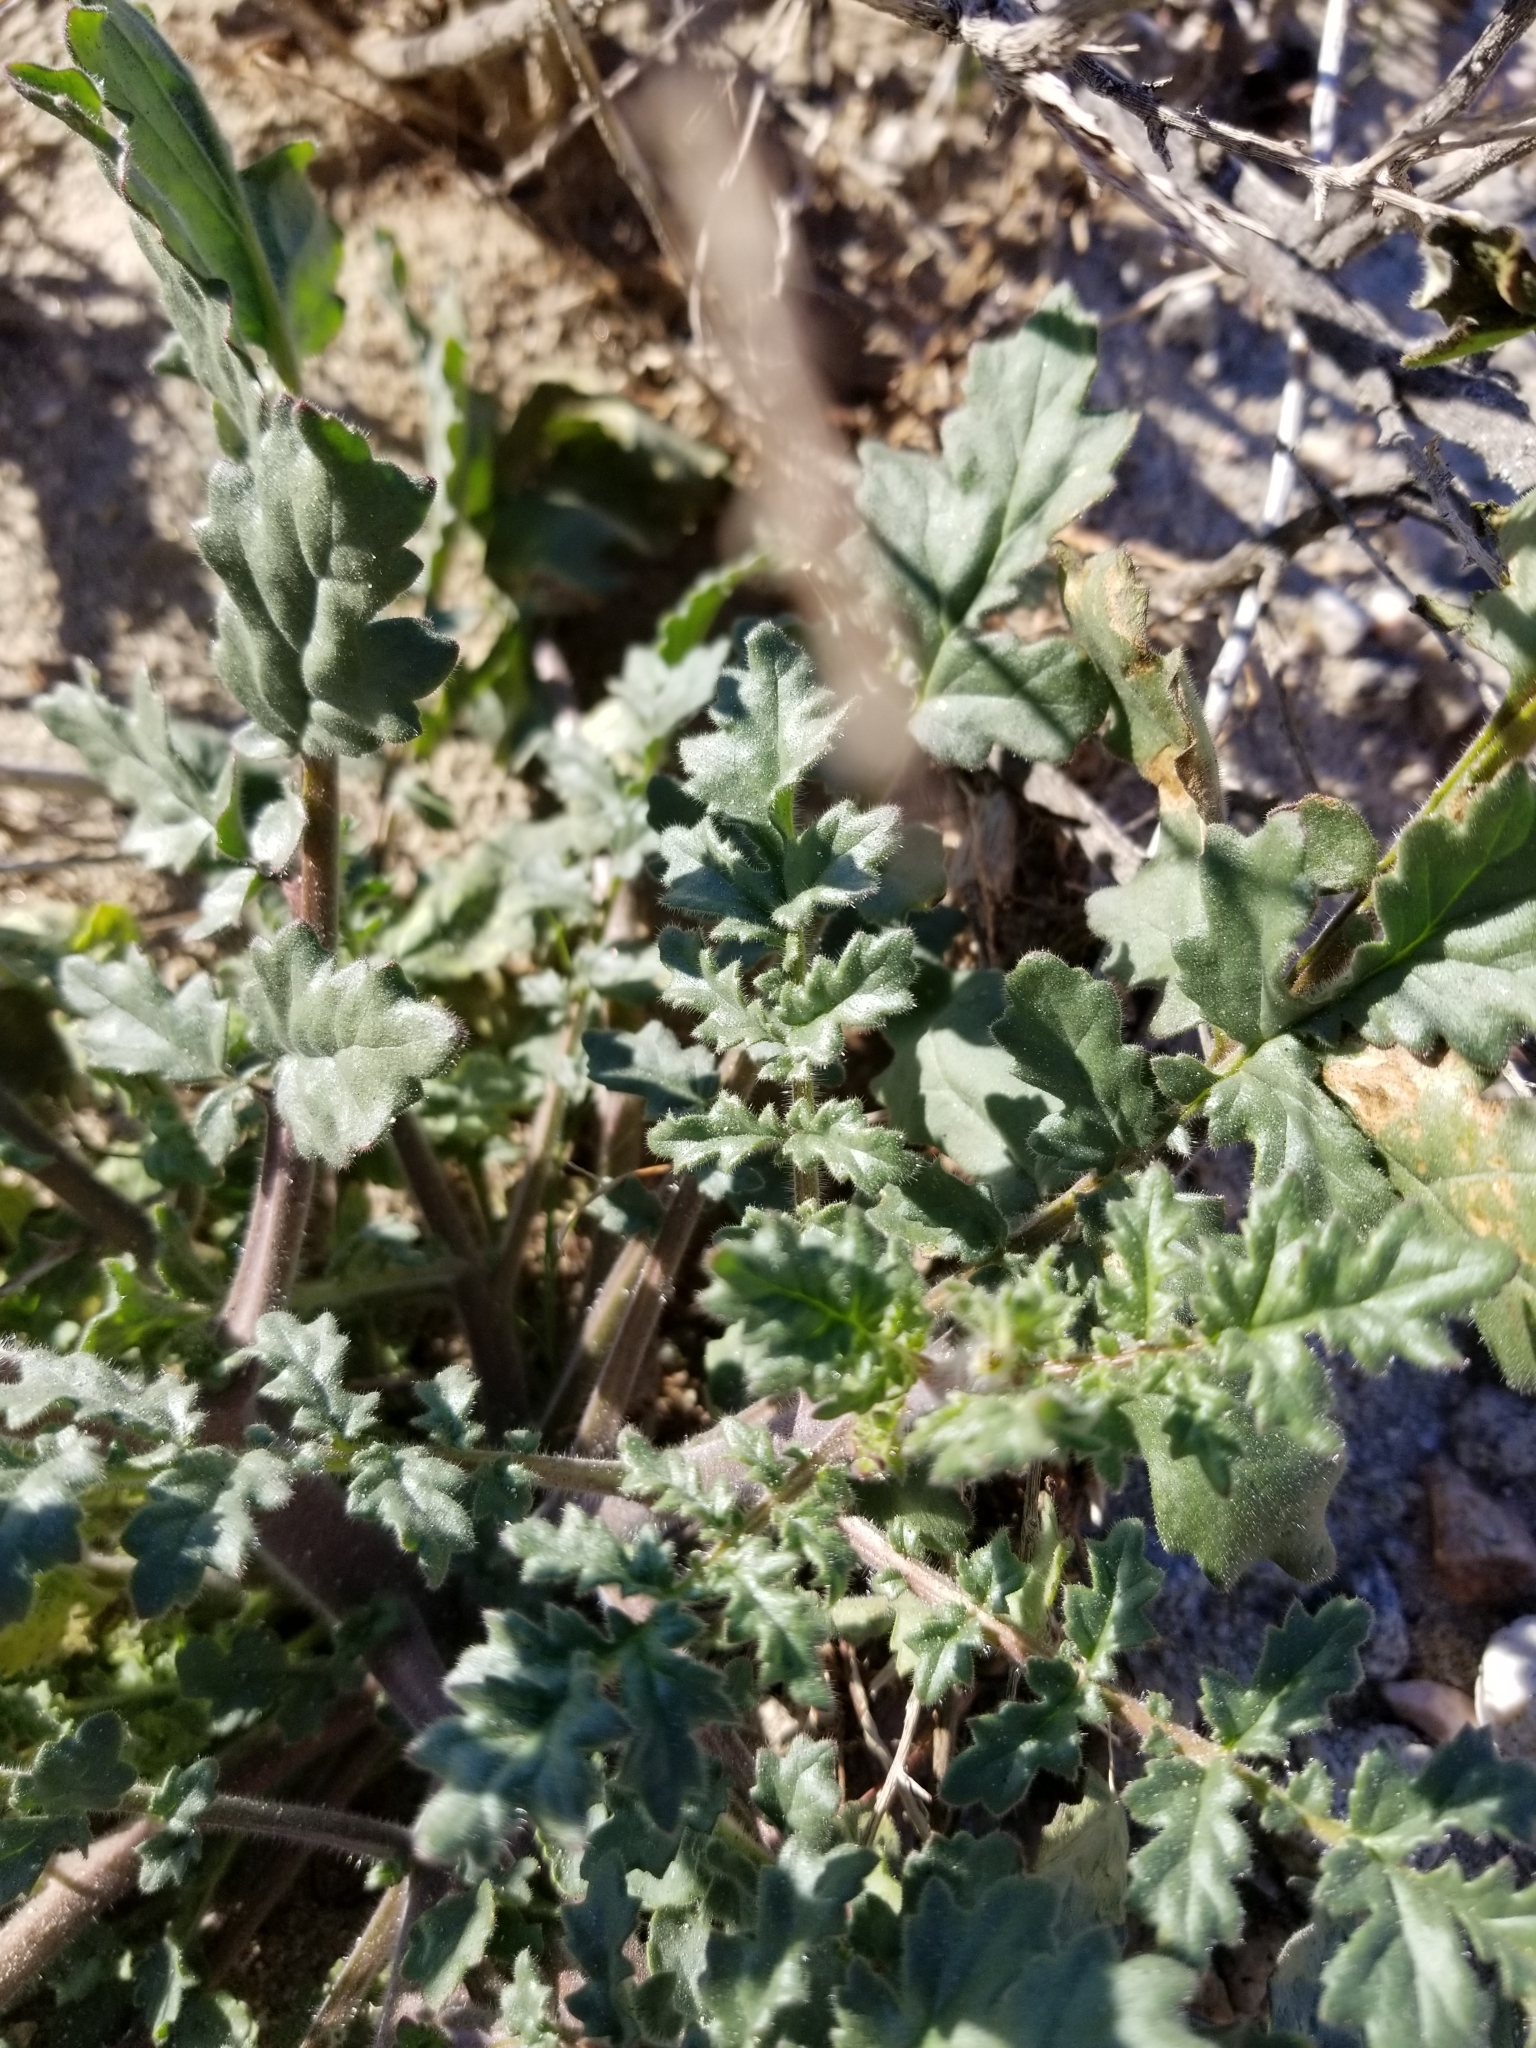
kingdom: Plantae
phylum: Tracheophyta
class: Magnoliopsida
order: Boraginales
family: Hydrophyllaceae
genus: Phacelia
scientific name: Phacelia crenulata
